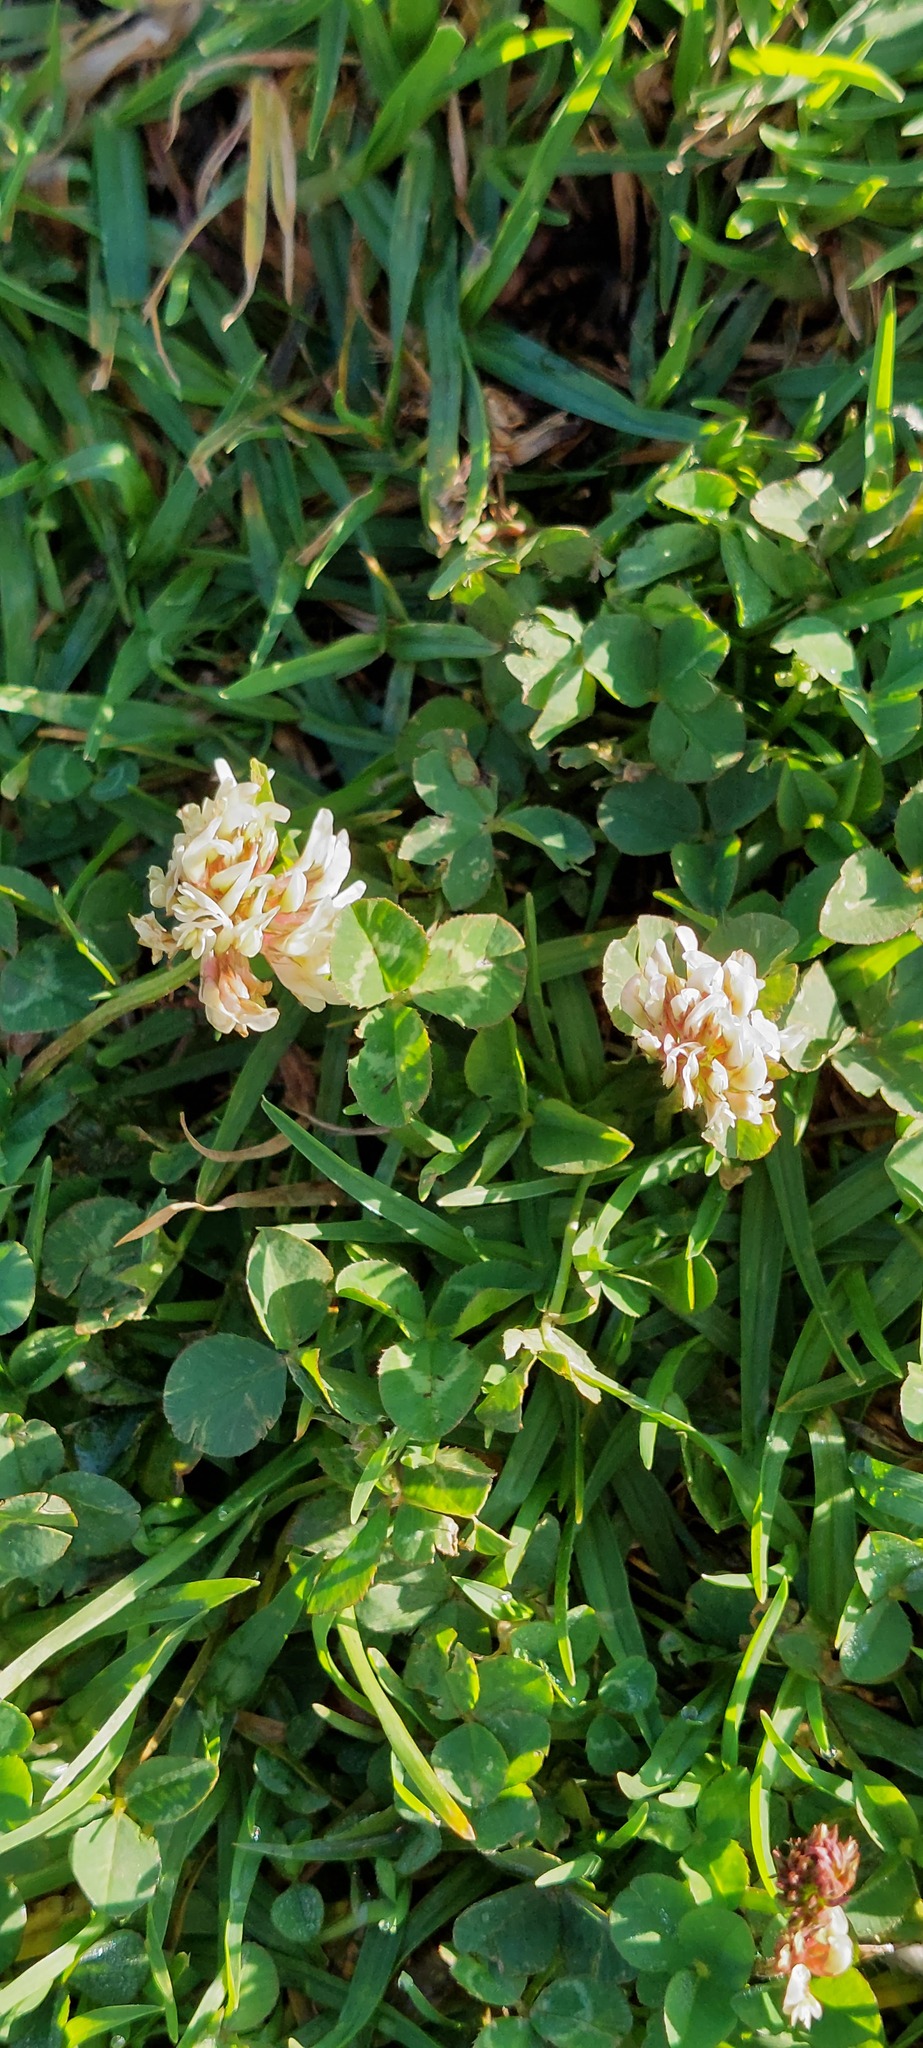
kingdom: Plantae
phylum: Tracheophyta
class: Magnoliopsida
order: Fabales
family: Fabaceae
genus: Trifolium
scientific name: Trifolium repens
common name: White clover
